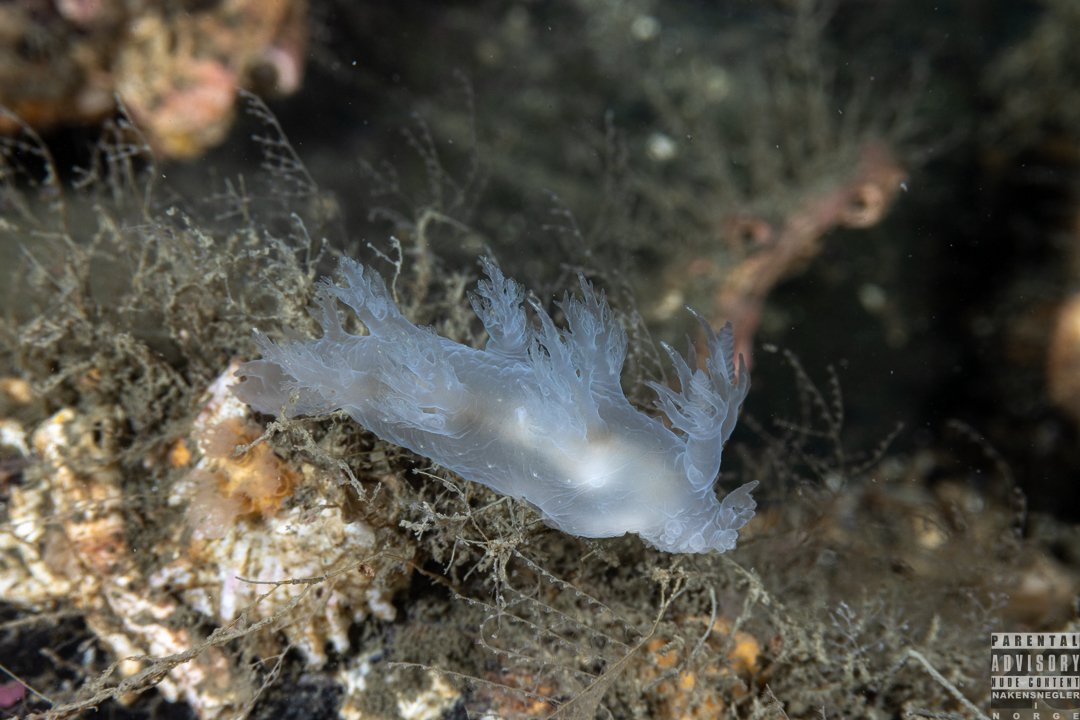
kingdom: Animalia
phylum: Mollusca
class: Gastropoda
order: Nudibranchia
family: Dendronotidae
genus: Dendronotus
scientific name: Dendronotus frondosus
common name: Bushy-backed nudibranch
